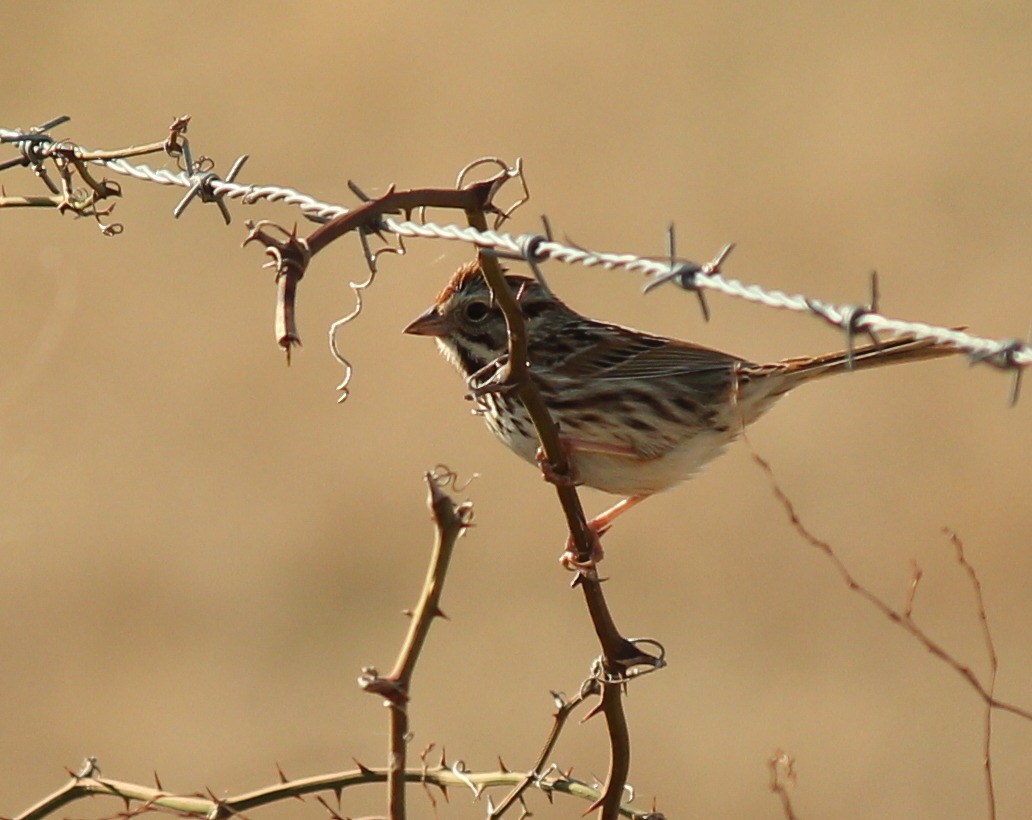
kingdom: Animalia
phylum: Chordata
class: Aves
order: Passeriformes
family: Passerellidae
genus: Melospiza
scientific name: Melospiza melodia
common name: Song sparrow
